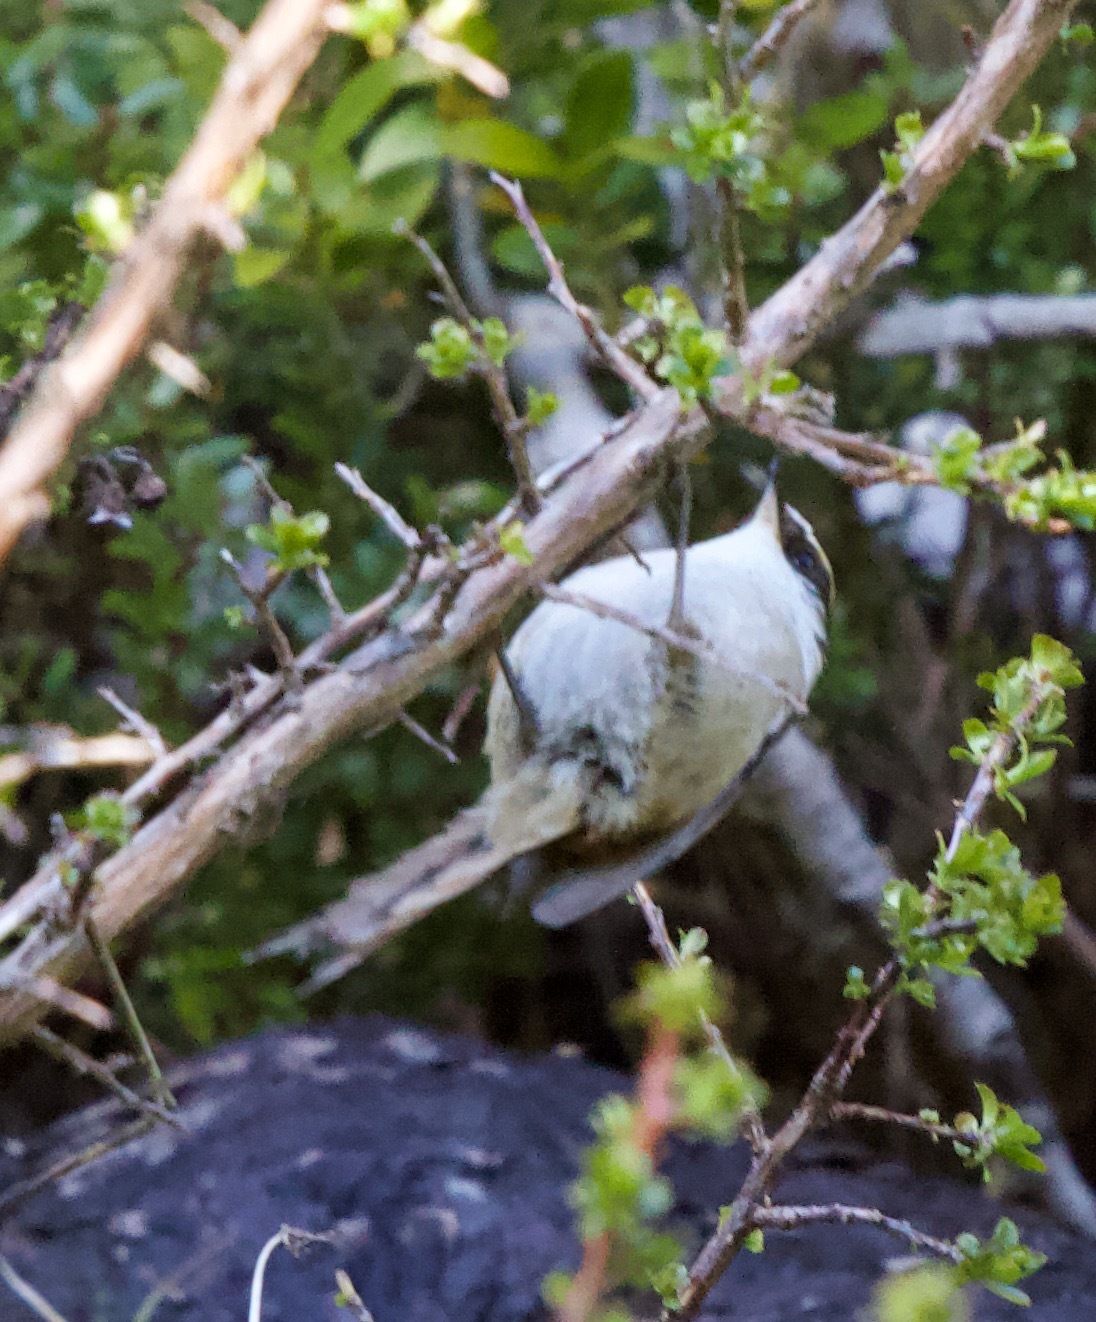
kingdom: Animalia
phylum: Chordata
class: Aves
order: Passeriformes
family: Furnariidae
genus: Aphrastura
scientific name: Aphrastura spinicauda
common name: Thorn-tailed rayadito
